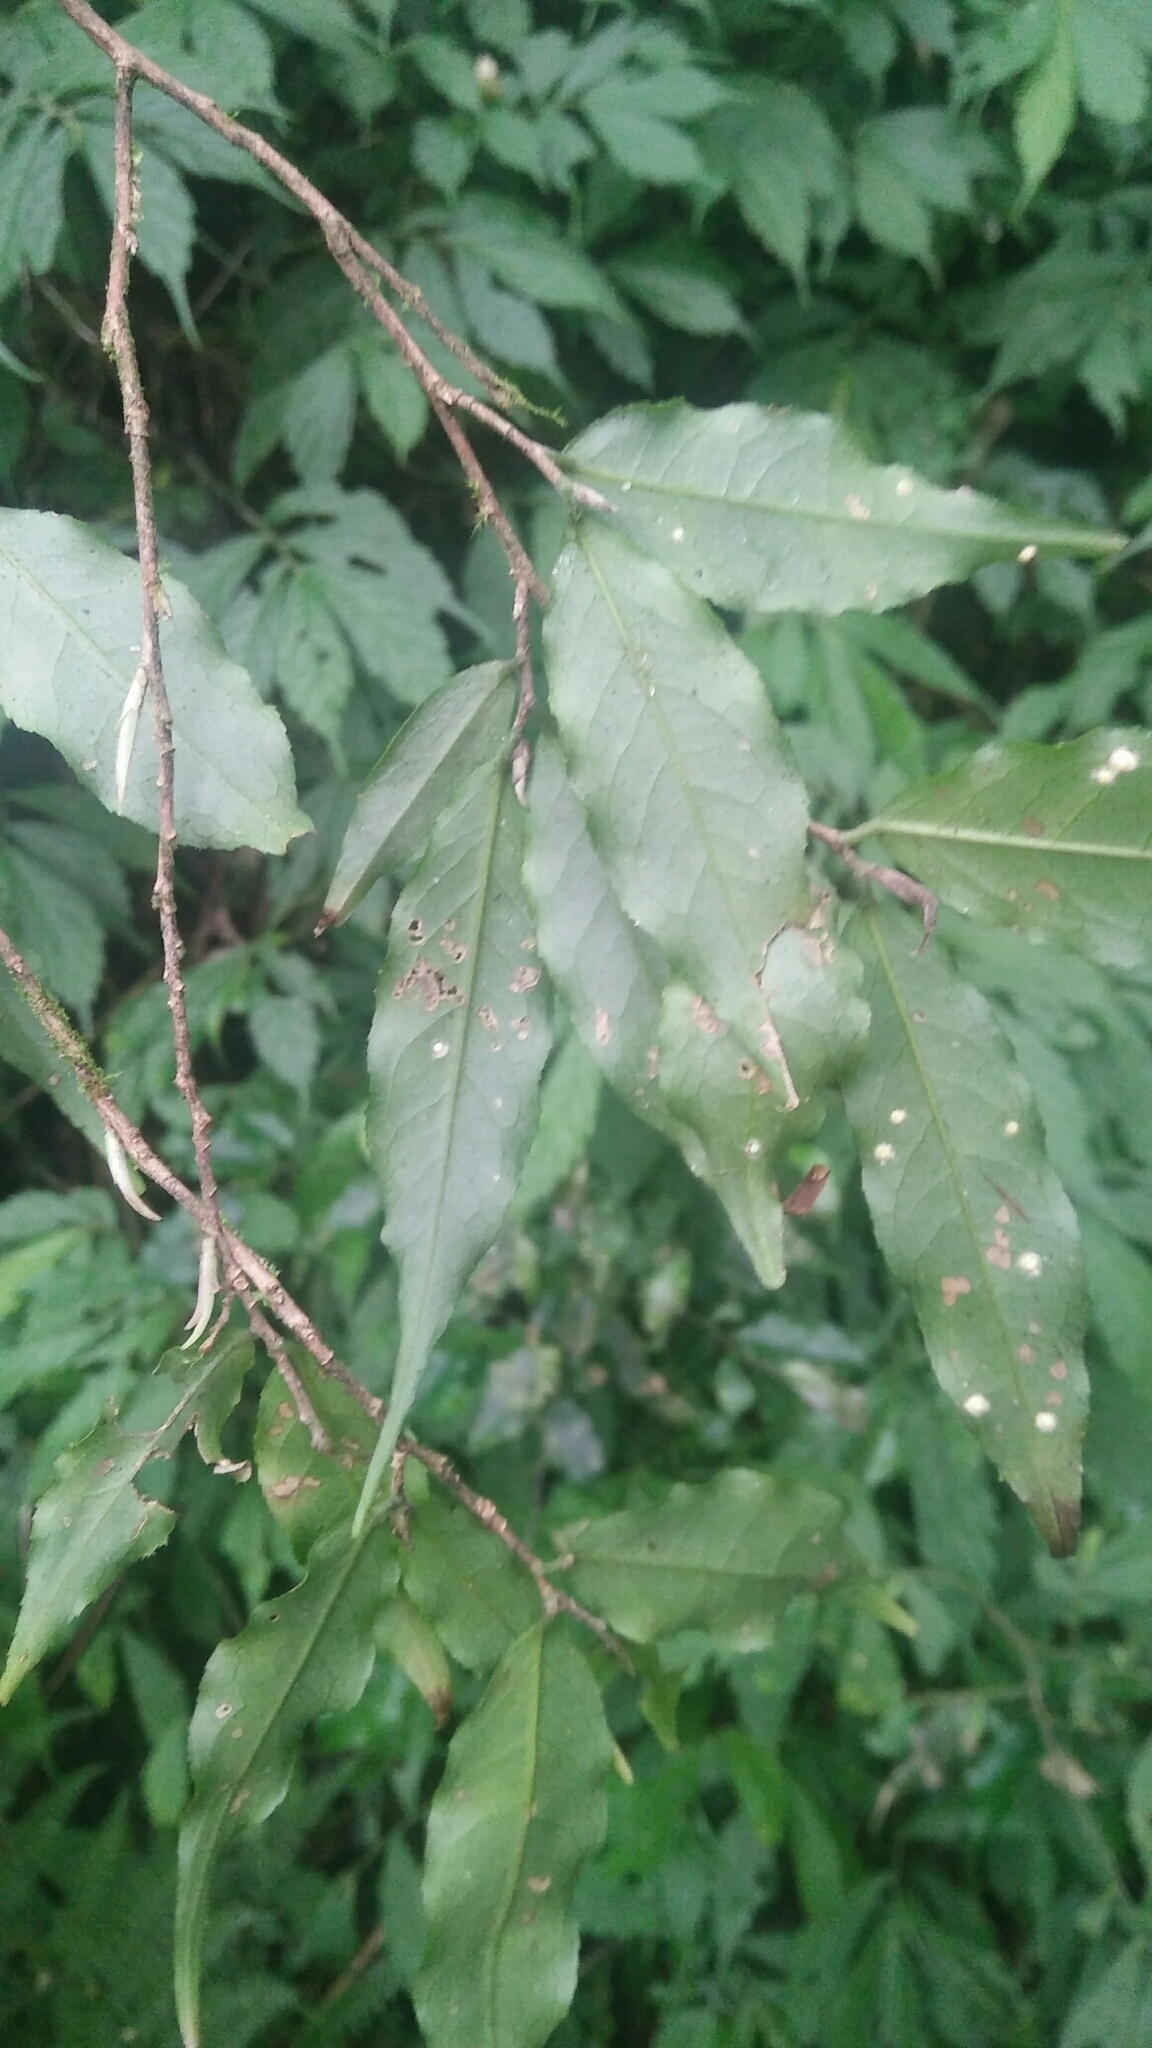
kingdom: Plantae
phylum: Tracheophyta
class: Magnoliopsida
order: Ericales
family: Theaceae
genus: Camellia
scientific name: Camellia caudata
